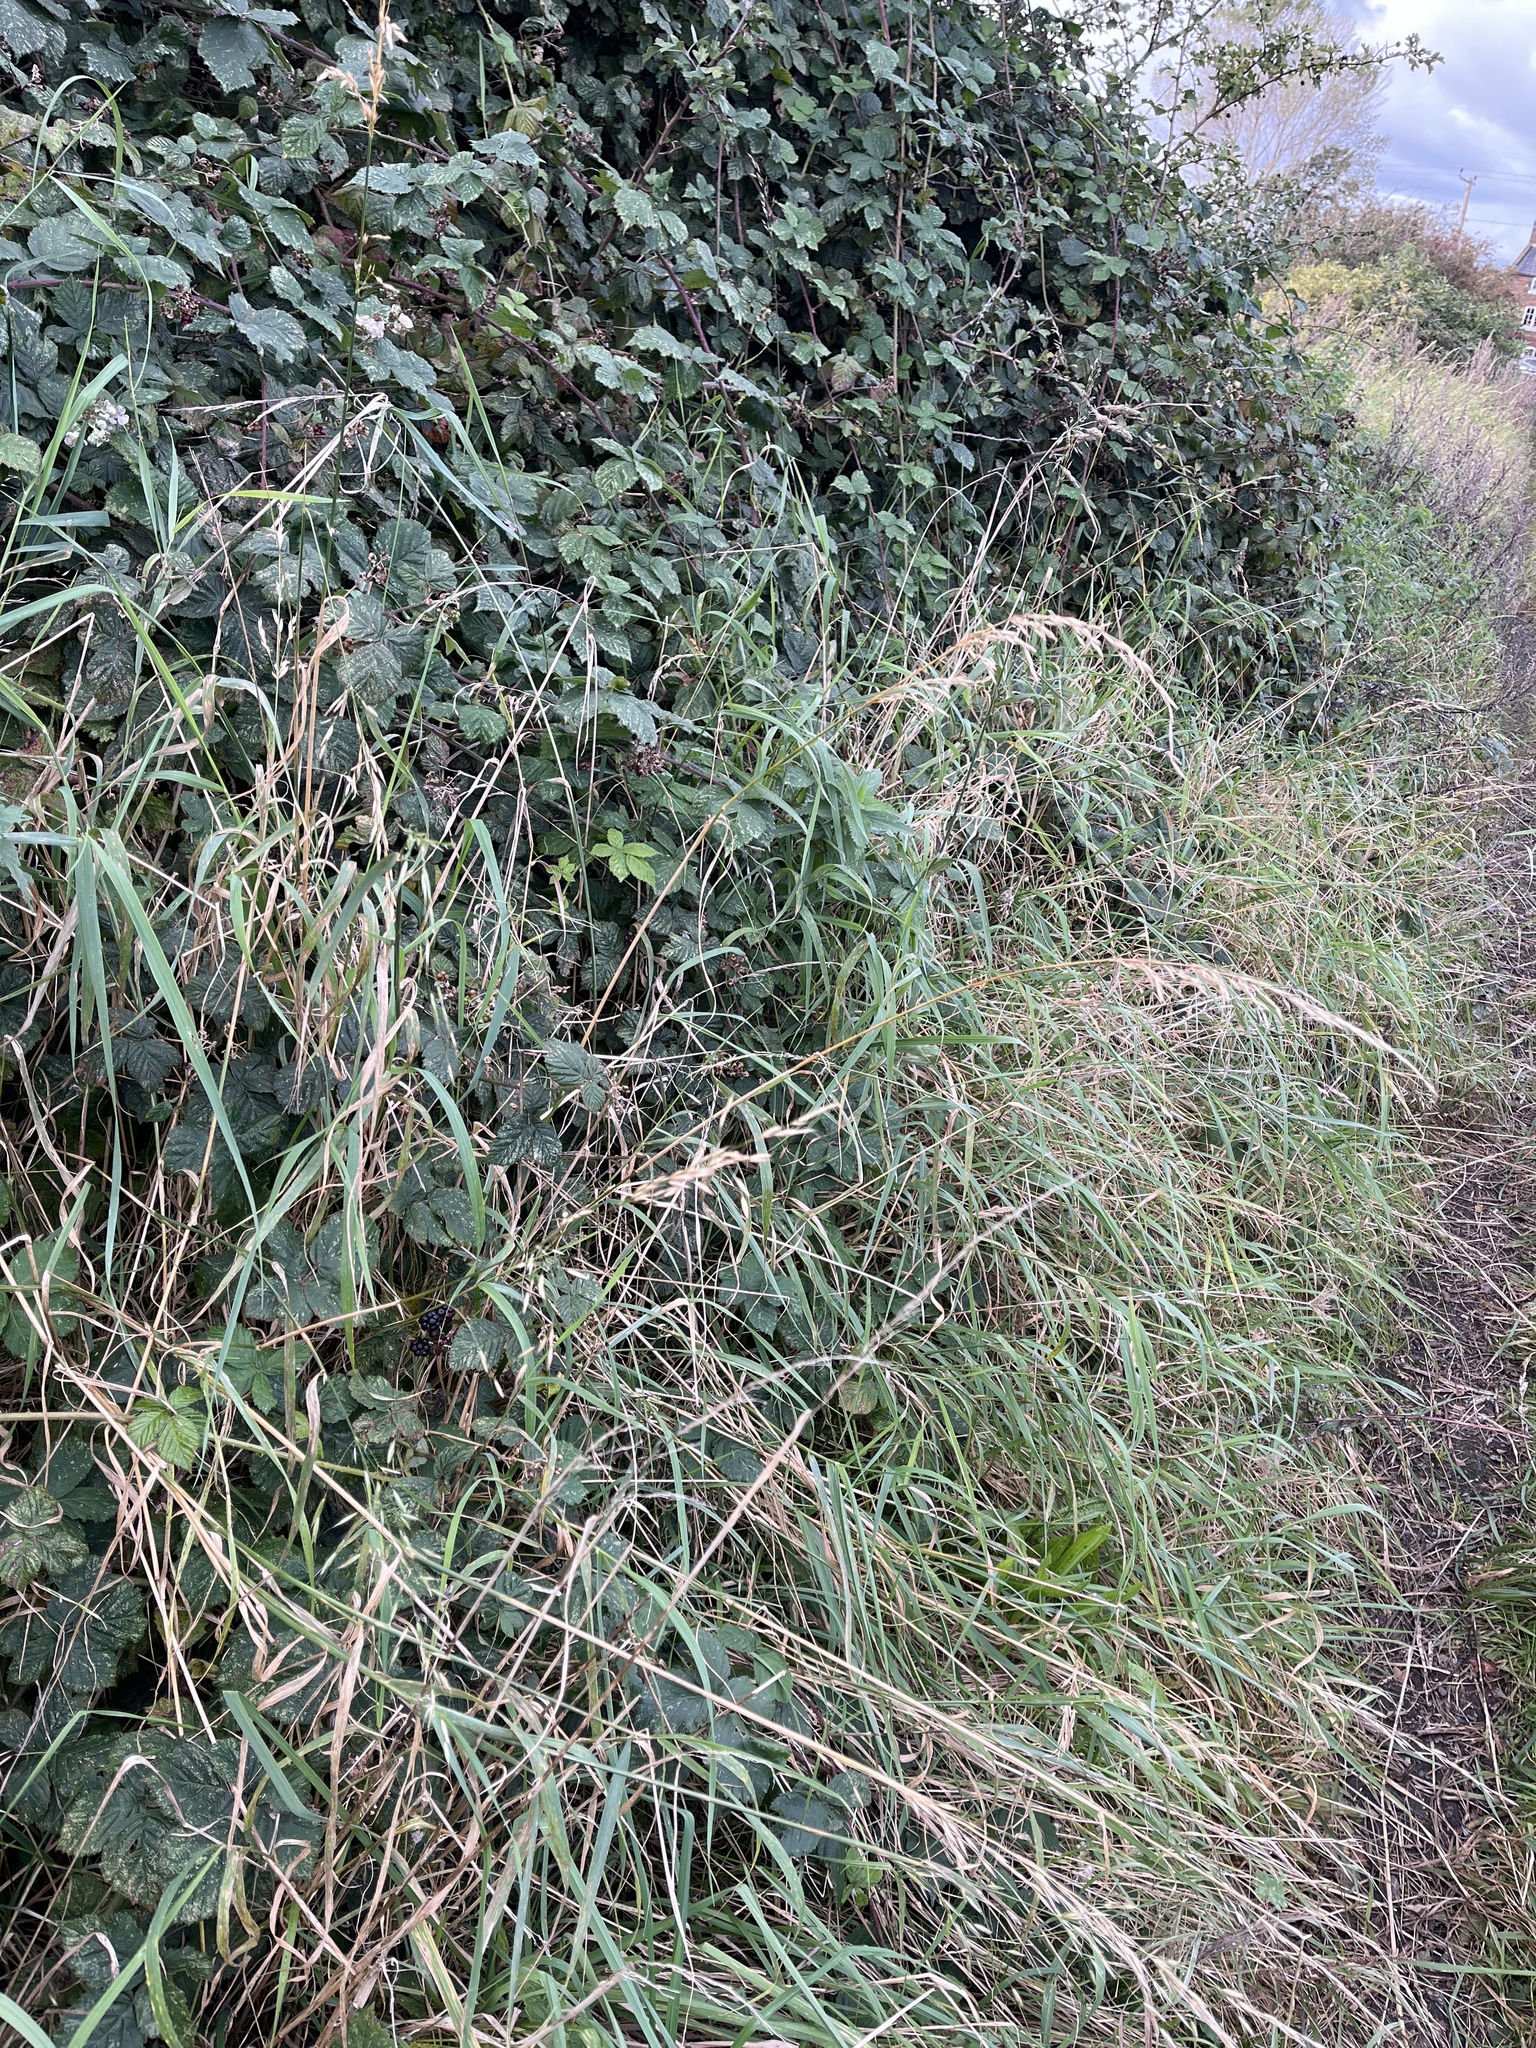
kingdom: Plantae
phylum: Tracheophyta
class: Liliopsida
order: Poales
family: Poaceae
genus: Arrhenatherum
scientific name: Arrhenatherum elatius
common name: Tall oatgrass
